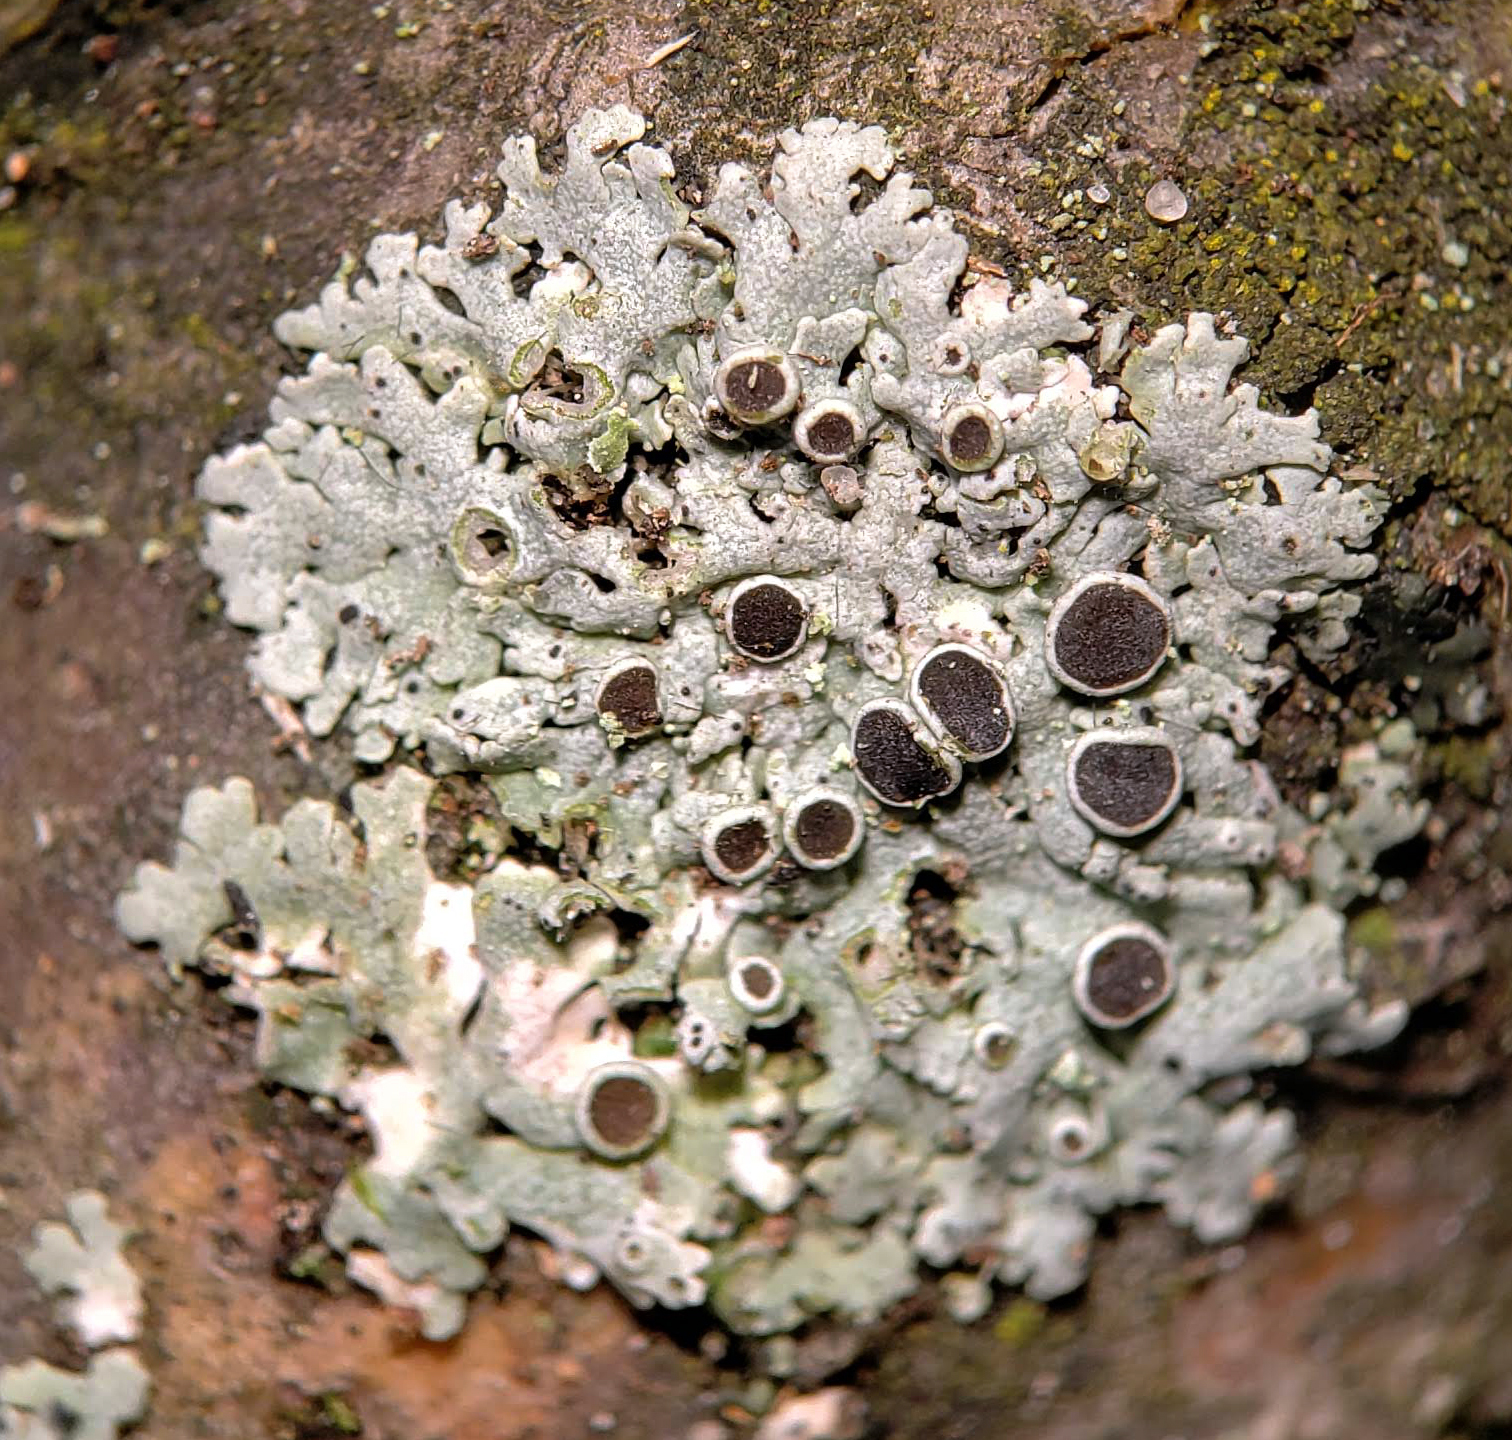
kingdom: Fungi
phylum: Ascomycota
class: Lecanoromycetes
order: Caliciales
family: Physciaceae
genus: Physcia
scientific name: Physcia aipolia
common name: Hoary rosette lichen
